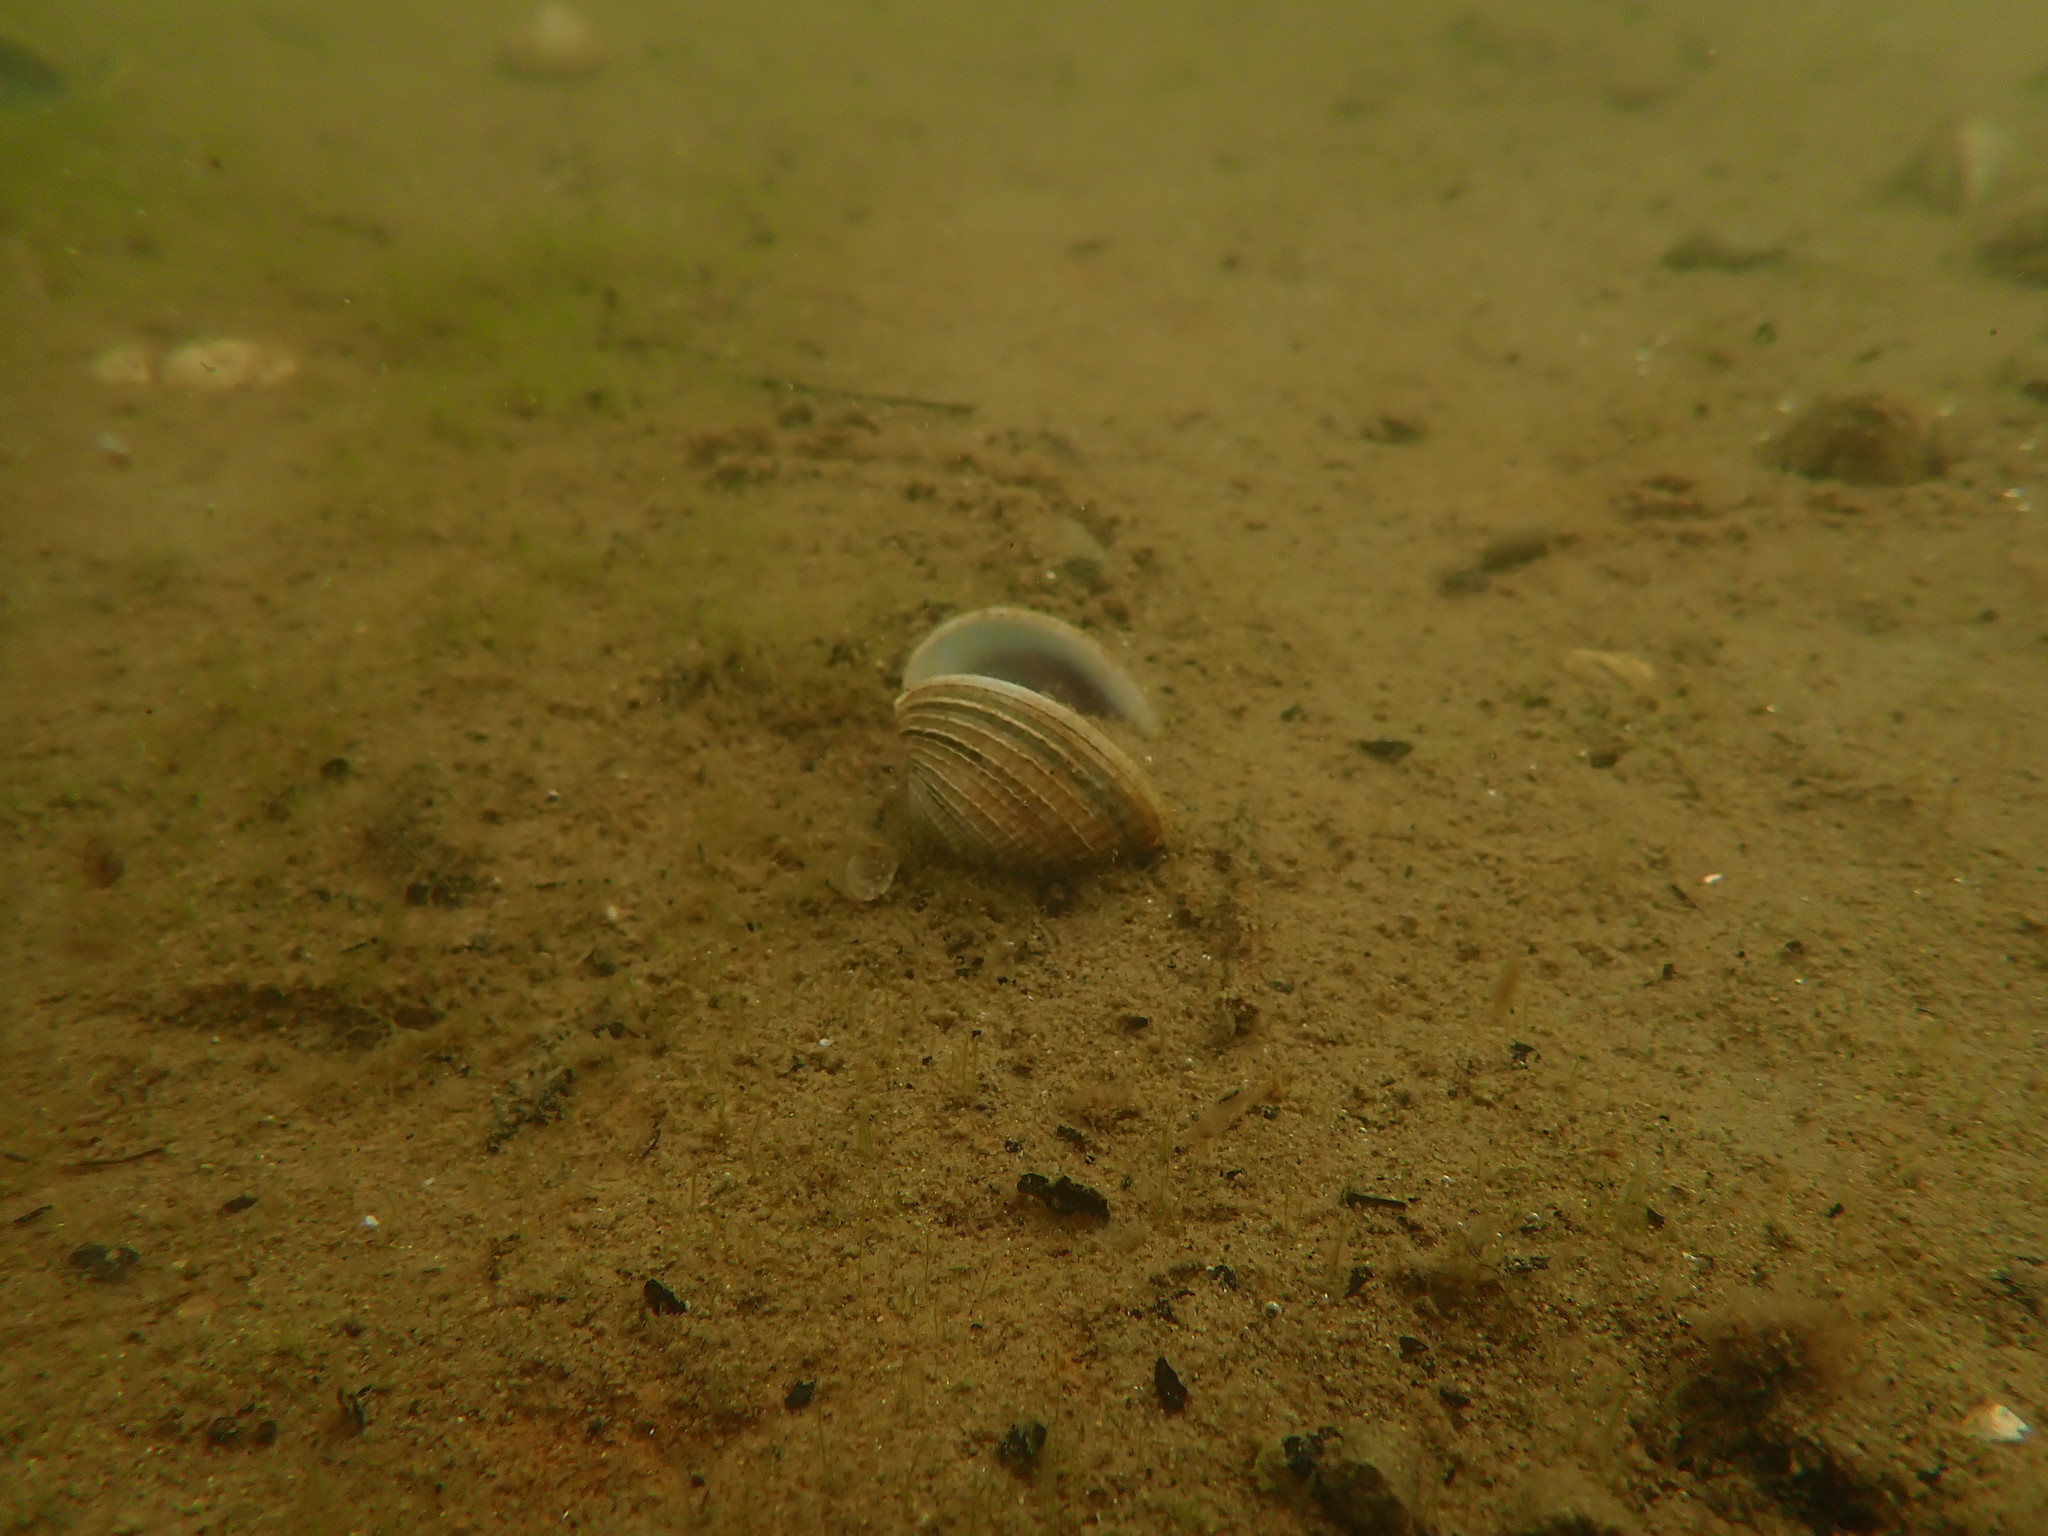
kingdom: Animalia
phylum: Mollusca
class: Bivalvia
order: Venerida
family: Veneridae
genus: Austrovenus
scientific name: Austrovenus stutchburyi
